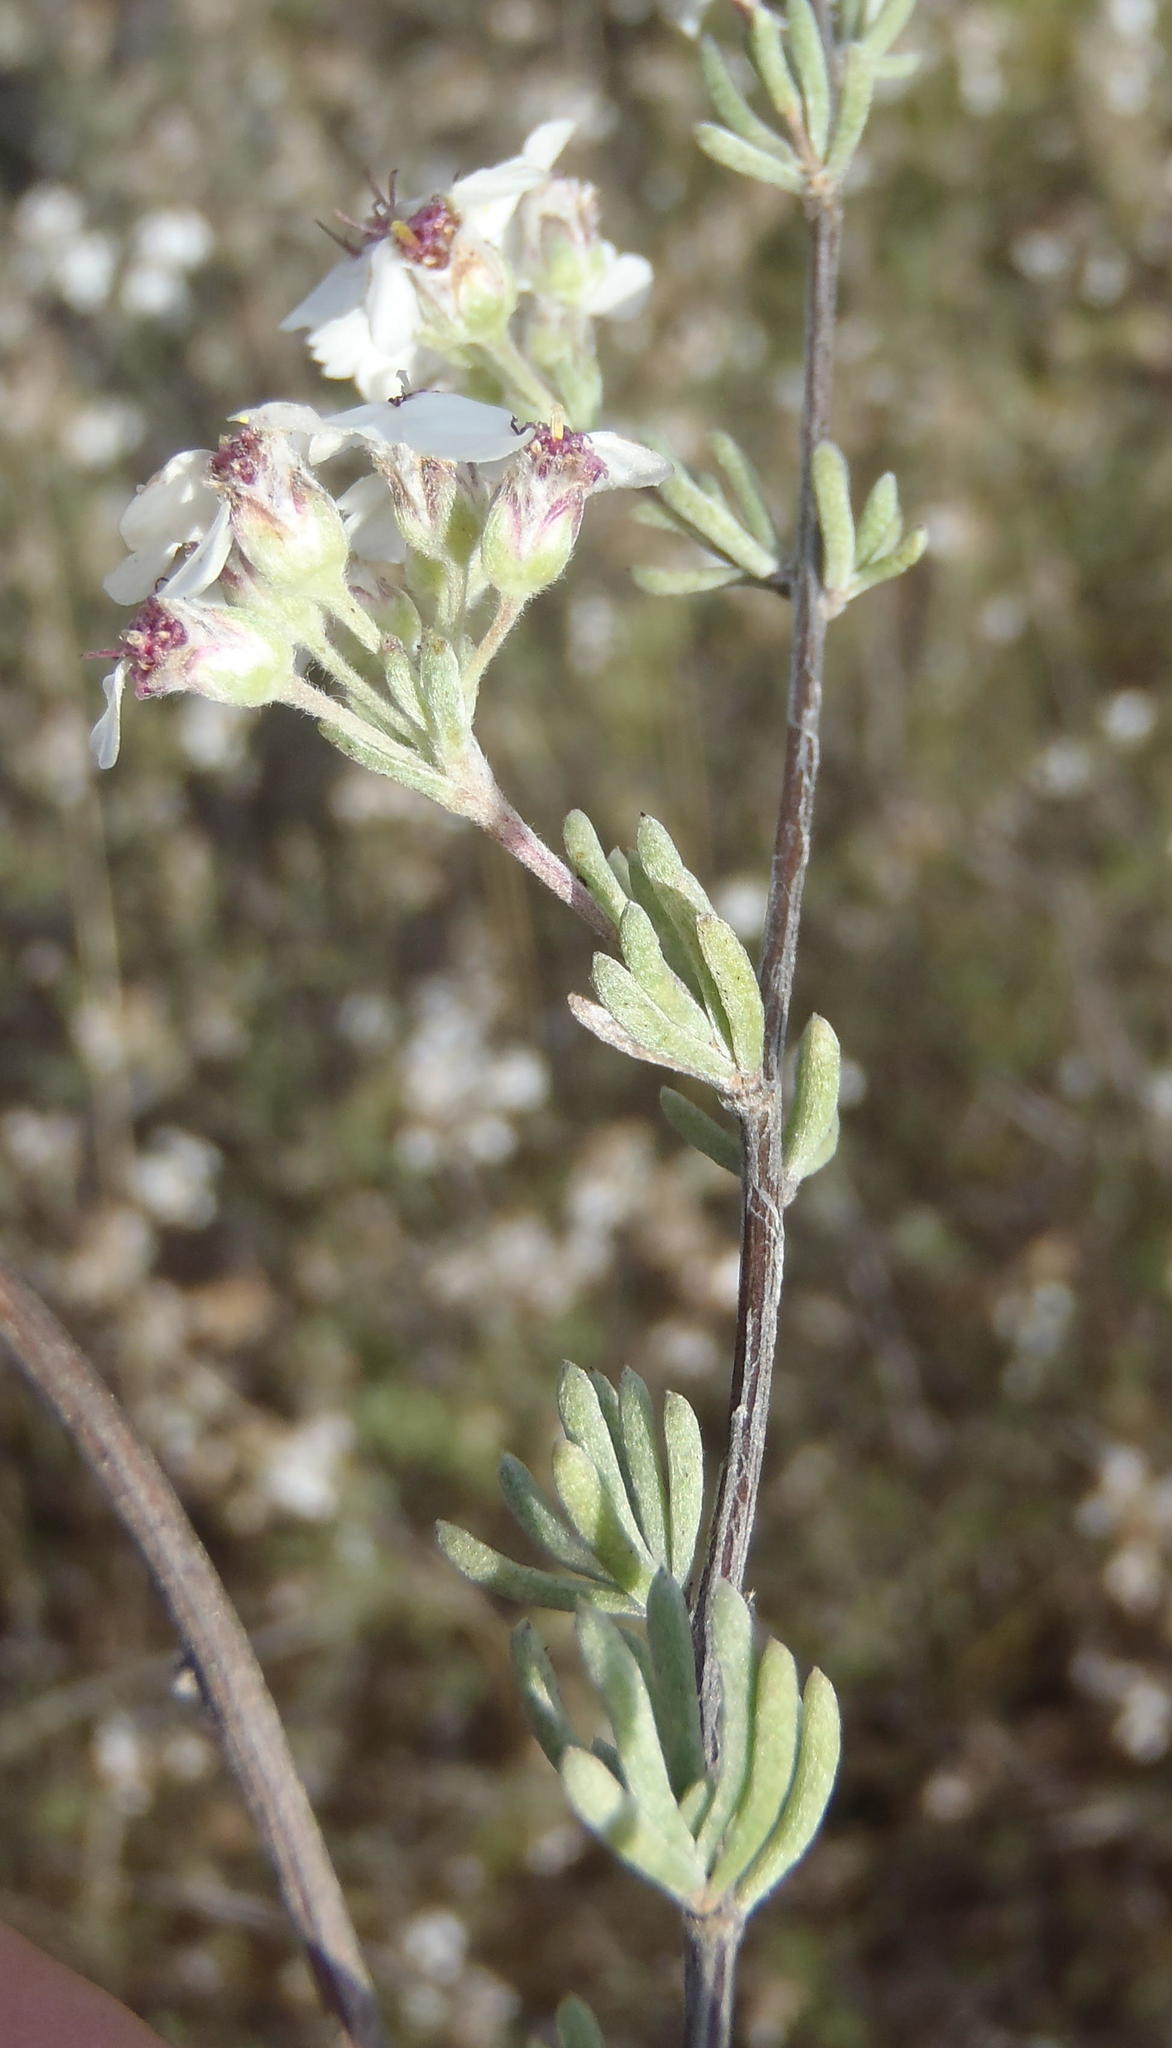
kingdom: Plantae
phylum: Tracheophyta
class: Magnoliopsida
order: Asterales
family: Asteraceae
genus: Eriocephalus
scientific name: Eriocephalus africanus
